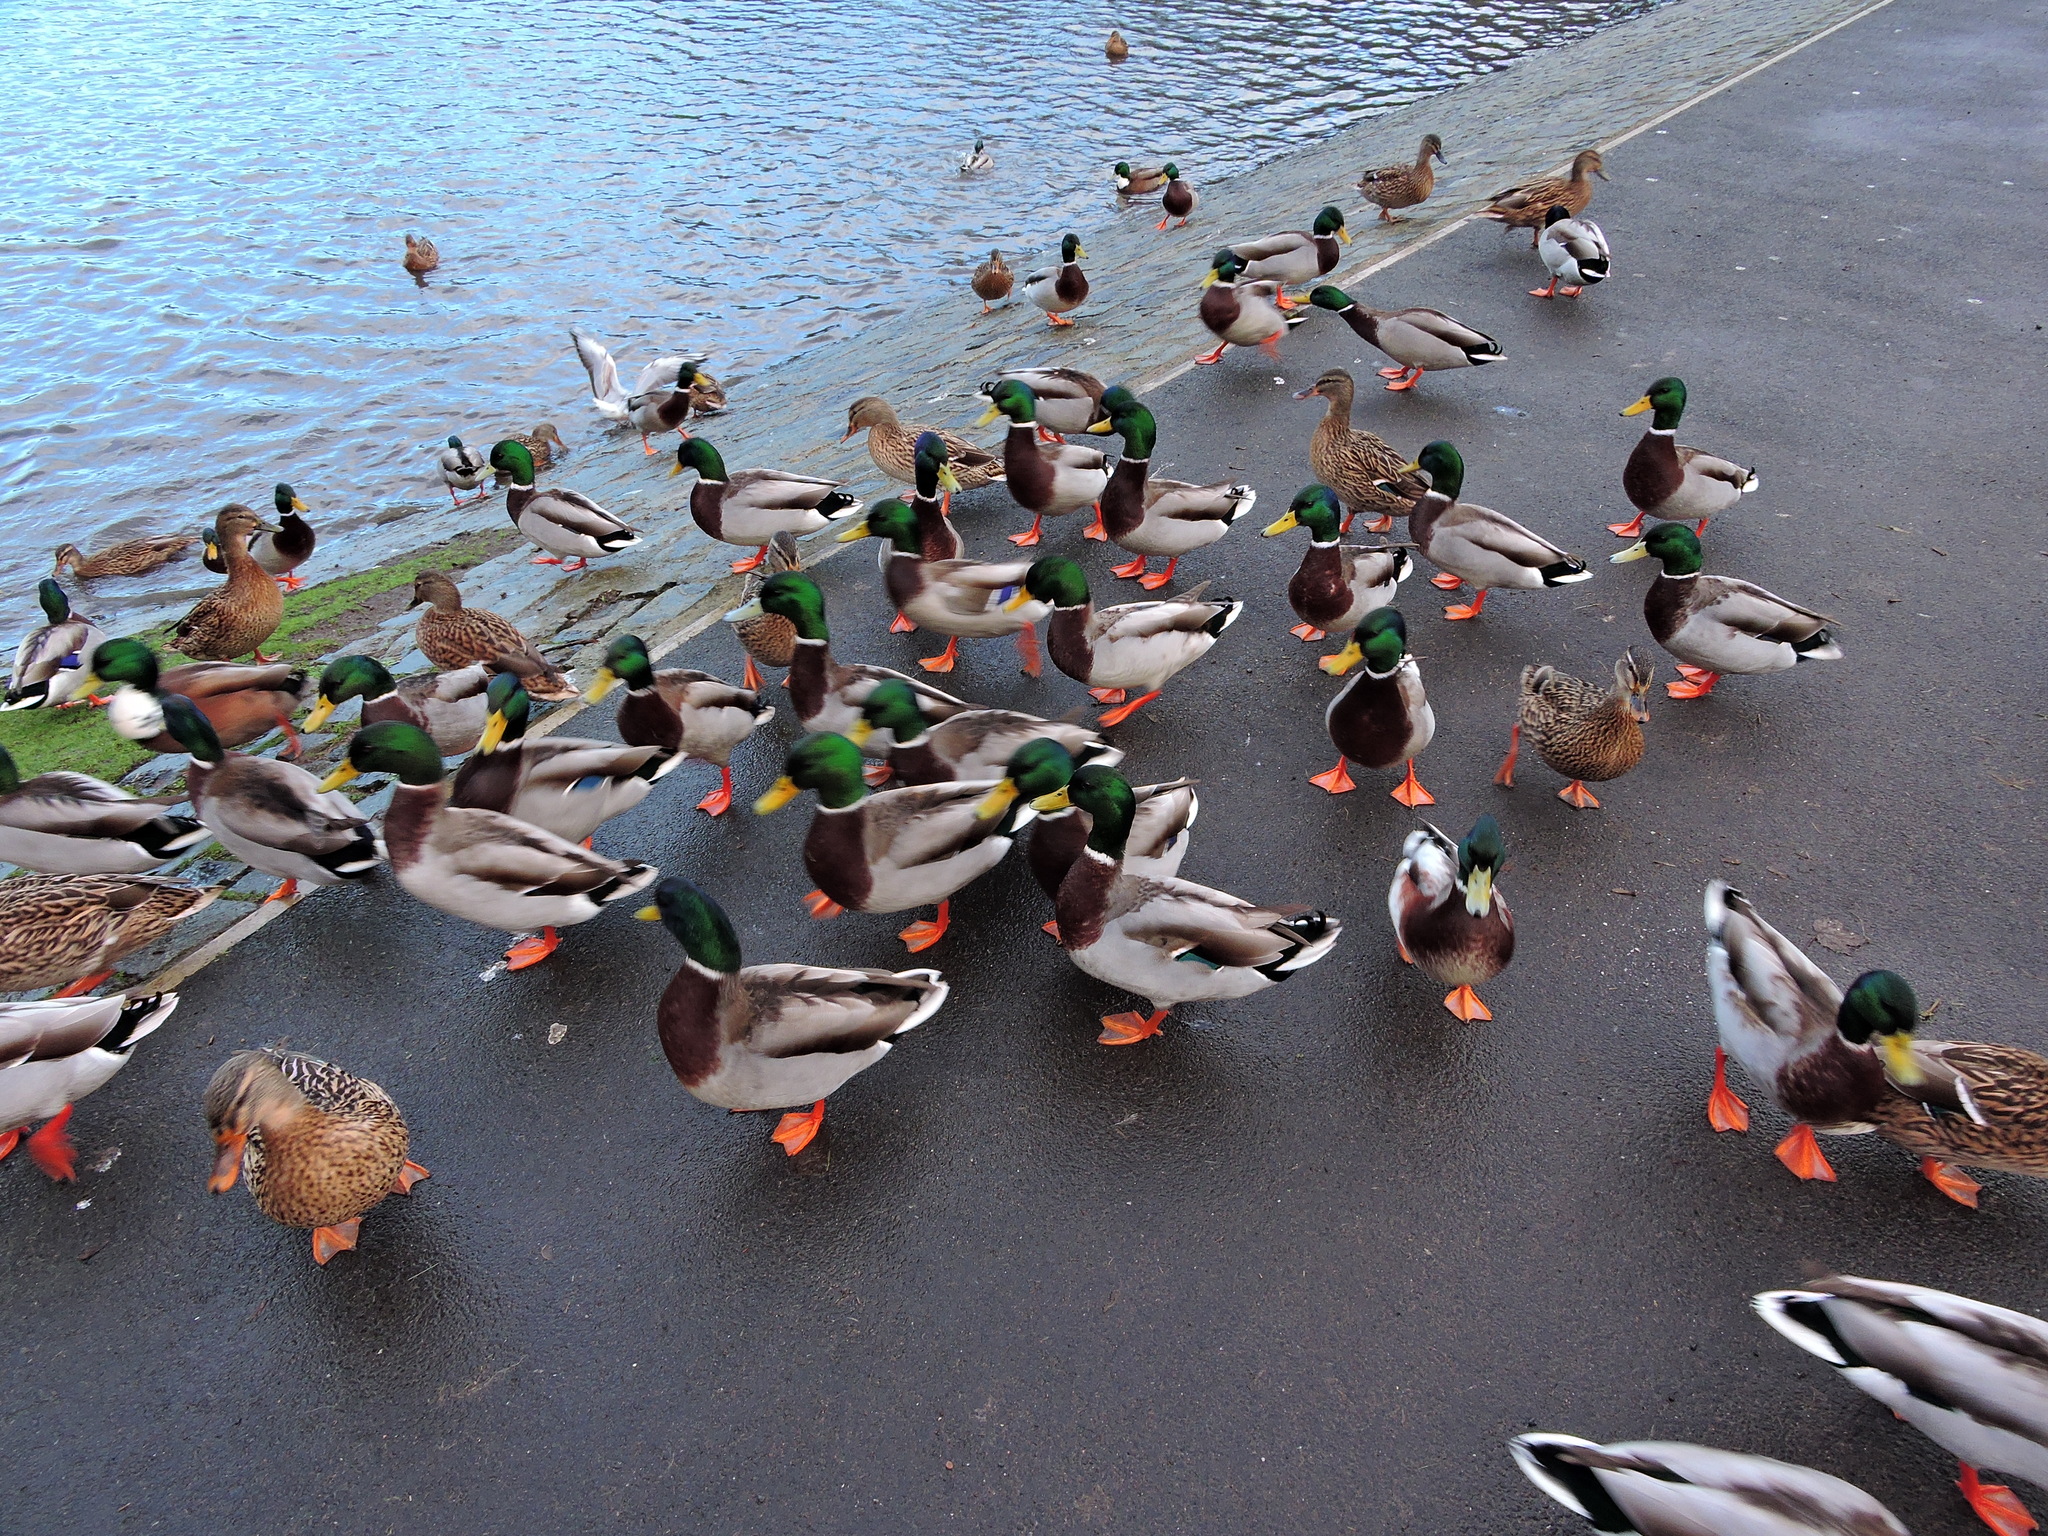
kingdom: Animalia
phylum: Chordata
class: Aves
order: Anseriformes
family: Anatidae
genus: Anas
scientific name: Anas platyrhynchos
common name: Mallard
